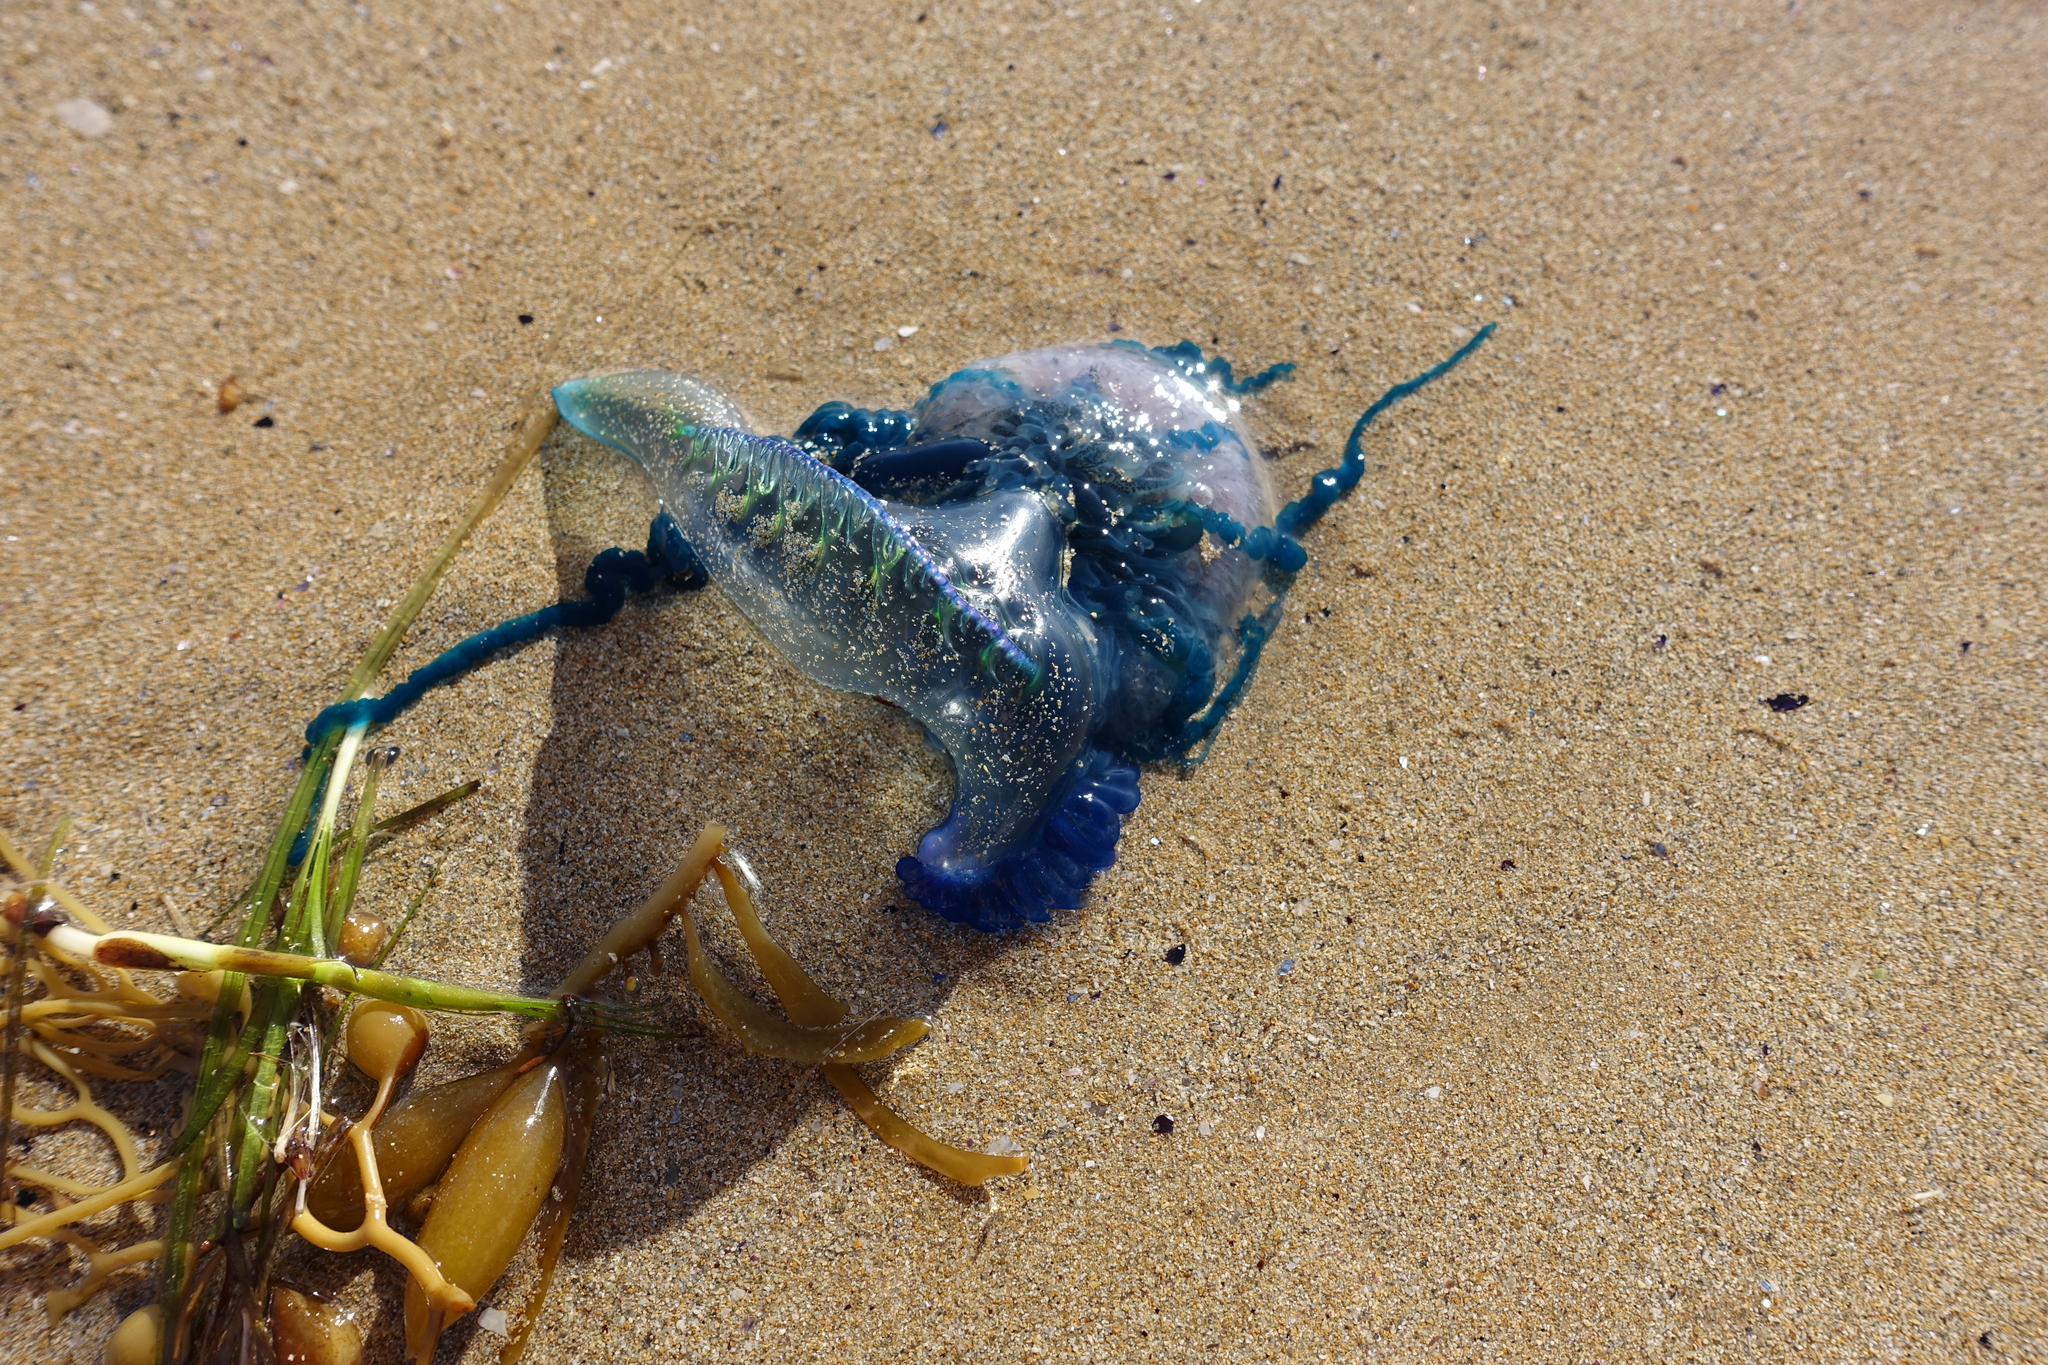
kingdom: Animalia
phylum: Cnidaria
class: Hydrozoa
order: Siphonophorae
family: Physaliidae
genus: Physalia
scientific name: Physalia physalis
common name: Portuguese man-of-war
